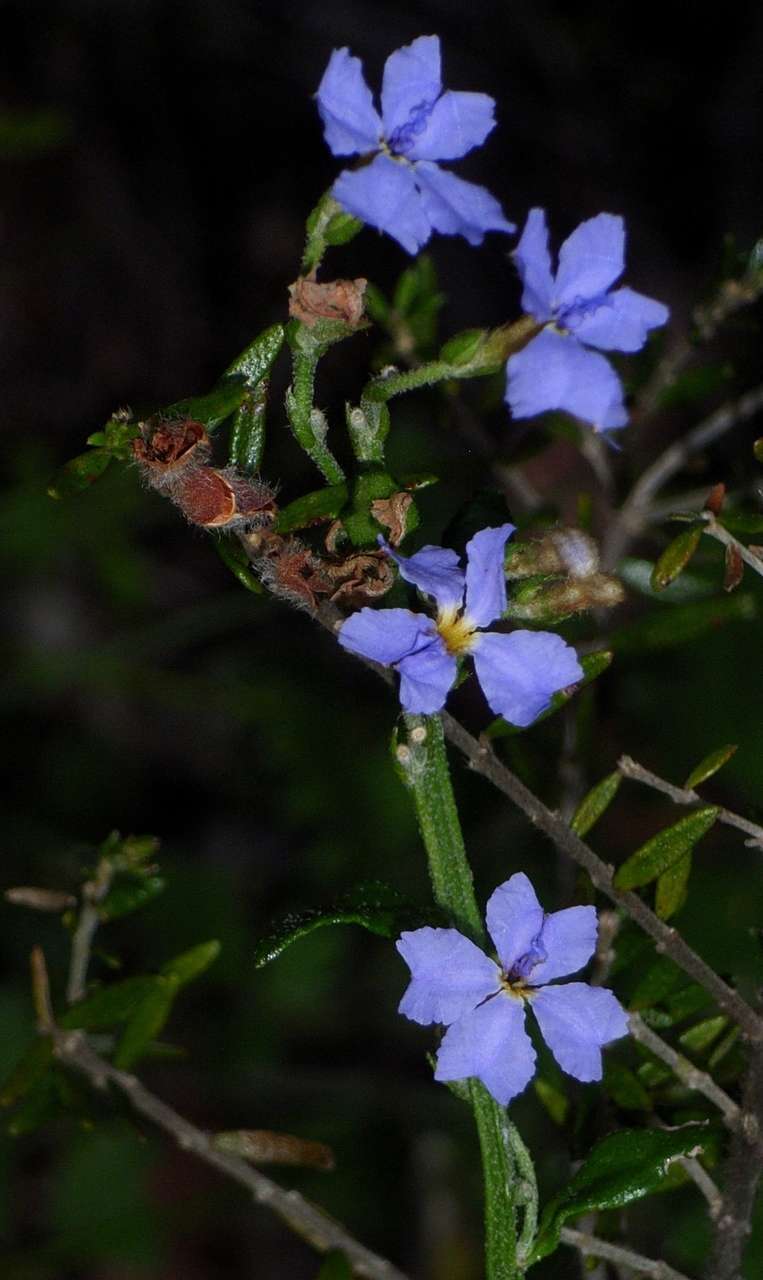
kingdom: Plantae
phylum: Tracheophyta
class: Magnoliopsida
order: Asterales
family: Goodeniaceae
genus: Dampiera
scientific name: Dampiera stricta
